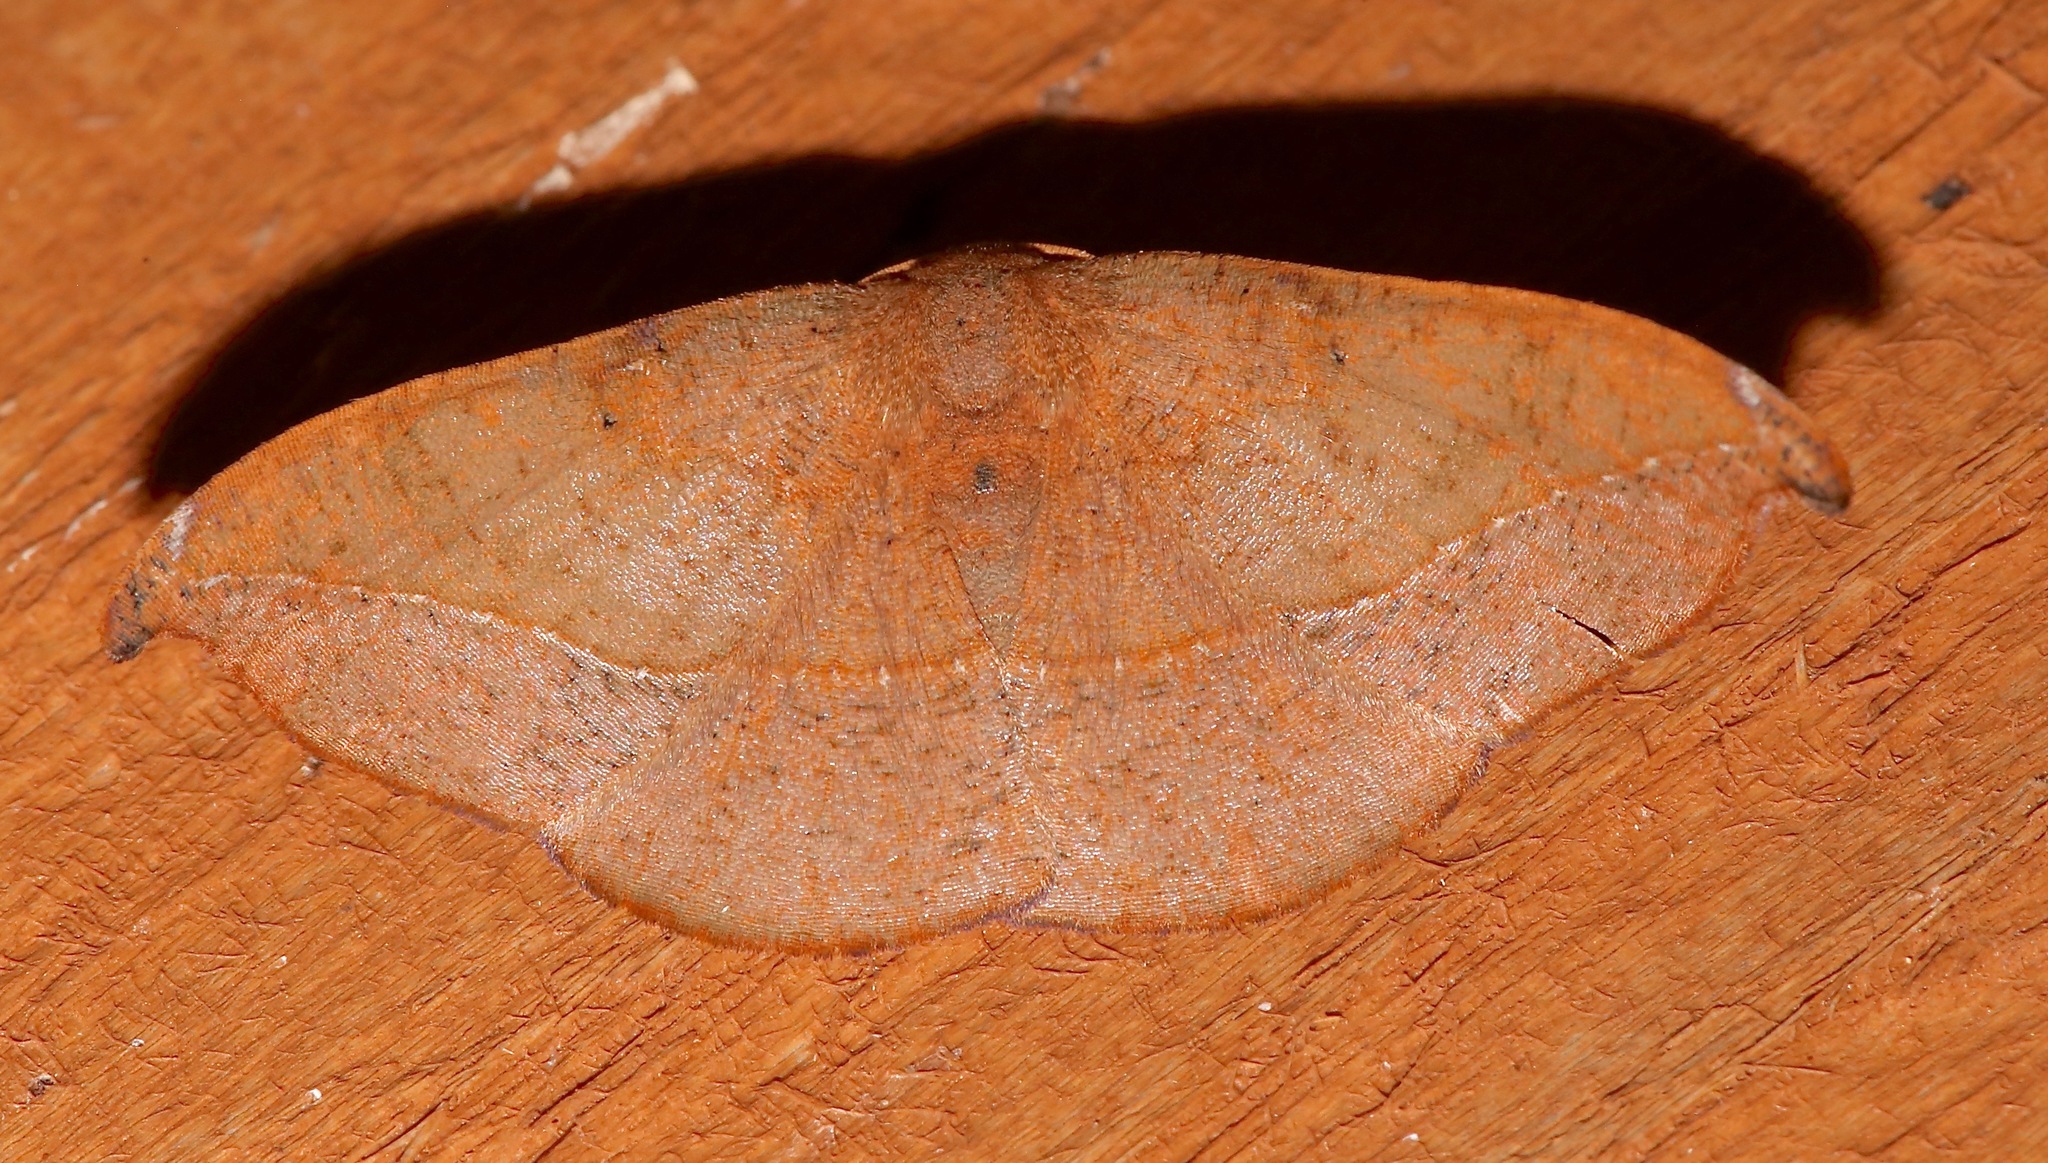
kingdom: Animalia
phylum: Arthropoda
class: Insecta
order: Lepidoptera
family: Geometridae
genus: Patalene
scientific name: Patalene olyzonaria
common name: Juniper geometer moth
